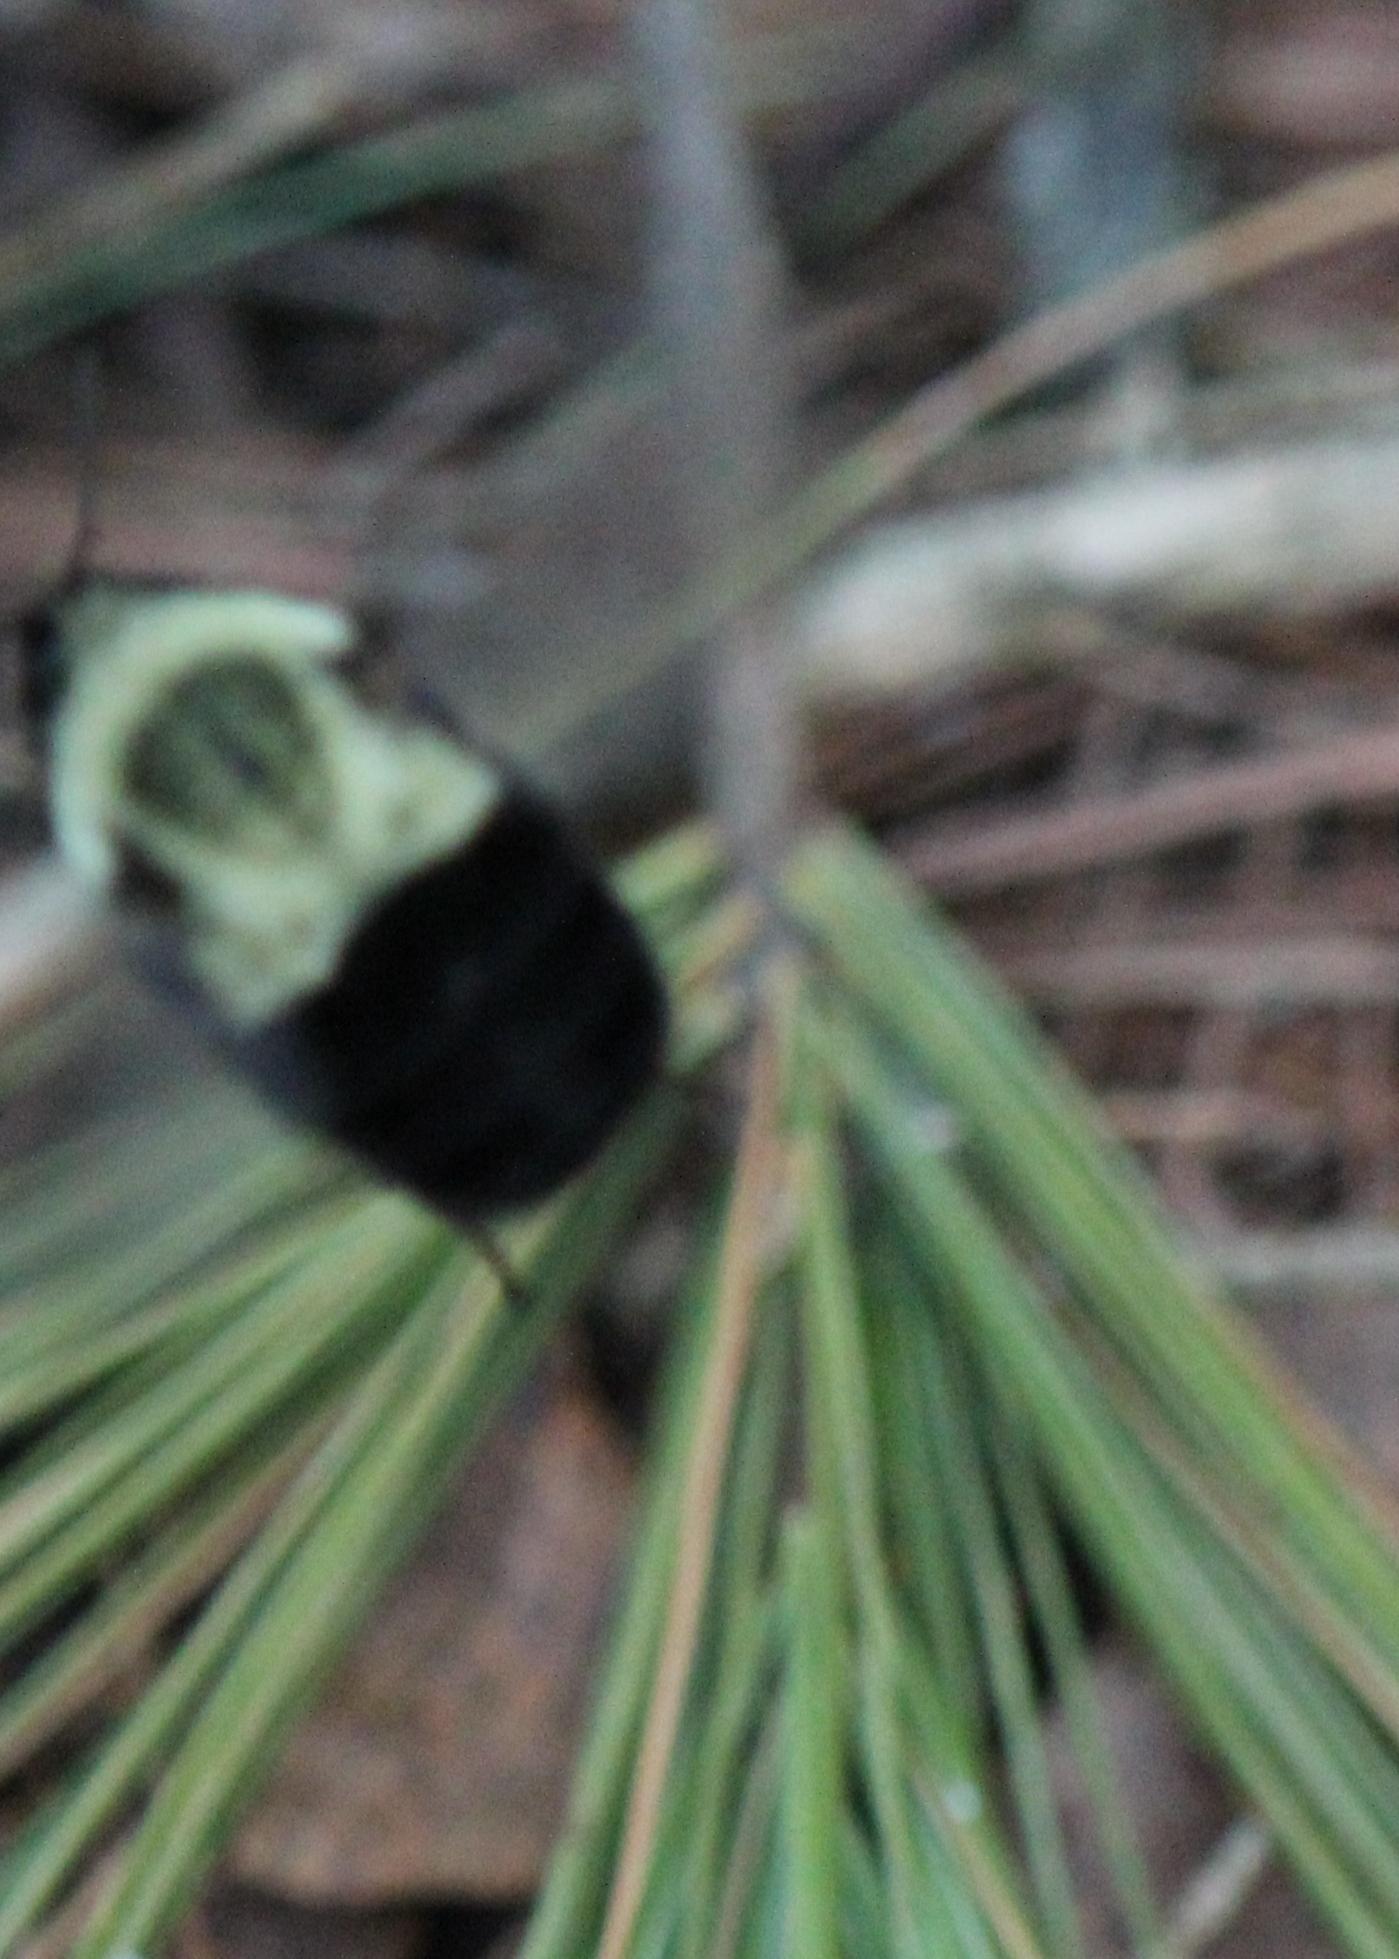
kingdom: Animalia
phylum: Arthropoda
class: Insecta
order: Hymenoptera
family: Apidae
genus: Bombus
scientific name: Bombus impatiens
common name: Common eastern bumble bee
